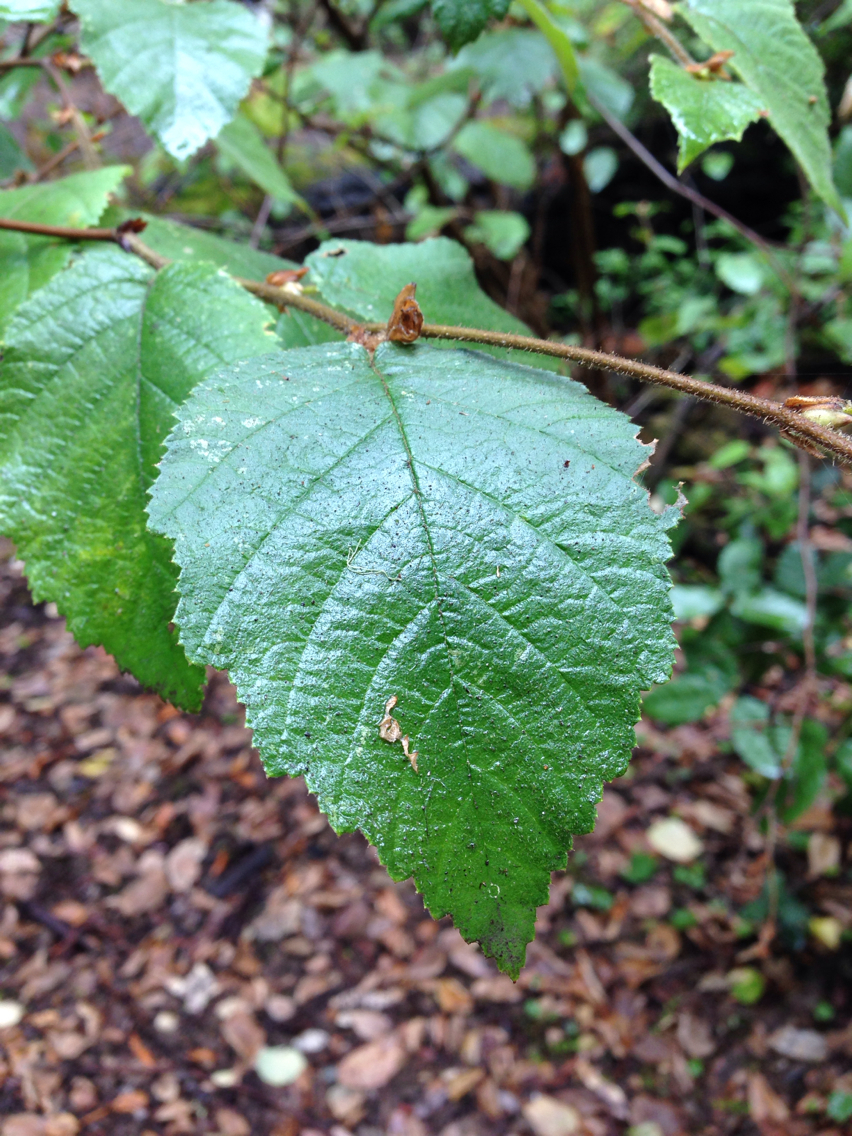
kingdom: Plantae
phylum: Tracheophyta
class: Magnoliopsida
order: Fagales
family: Betulaceae
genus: Corylus
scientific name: Corylus cornuta
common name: Beaked hazel
